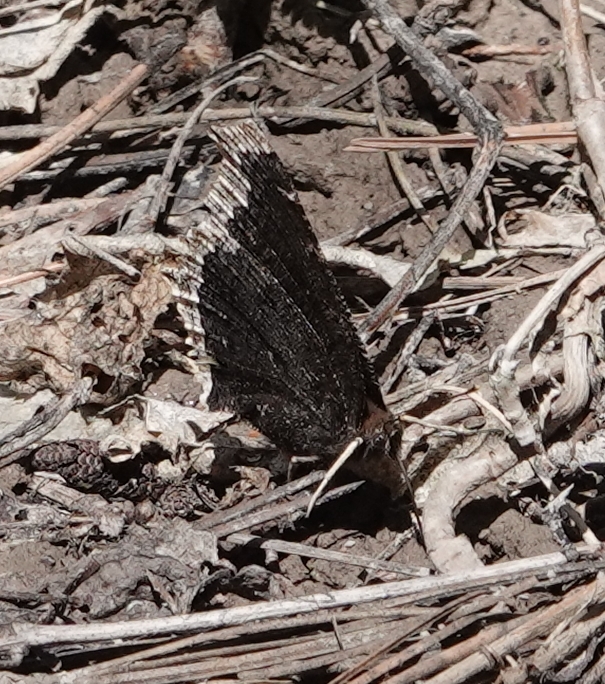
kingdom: Animalia
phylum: Arthropoda
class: Insecta
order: Lepidoptera
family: Nymphalidae
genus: Nymphalis
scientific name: Nymphalis antiopa
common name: Camberwell beauty
